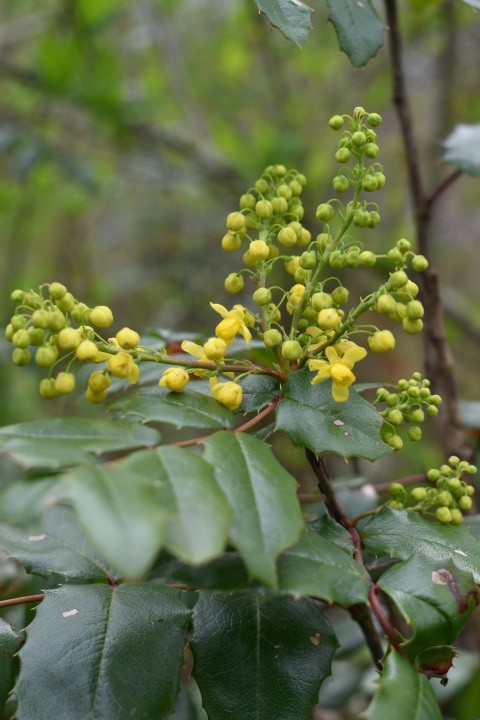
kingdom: Plantae
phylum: Tracheophyta
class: Magnoliopsida
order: Ranunculales
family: Berberidaceae
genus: Mahonia
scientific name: Mahonia aquifolium
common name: Oregon-grape
